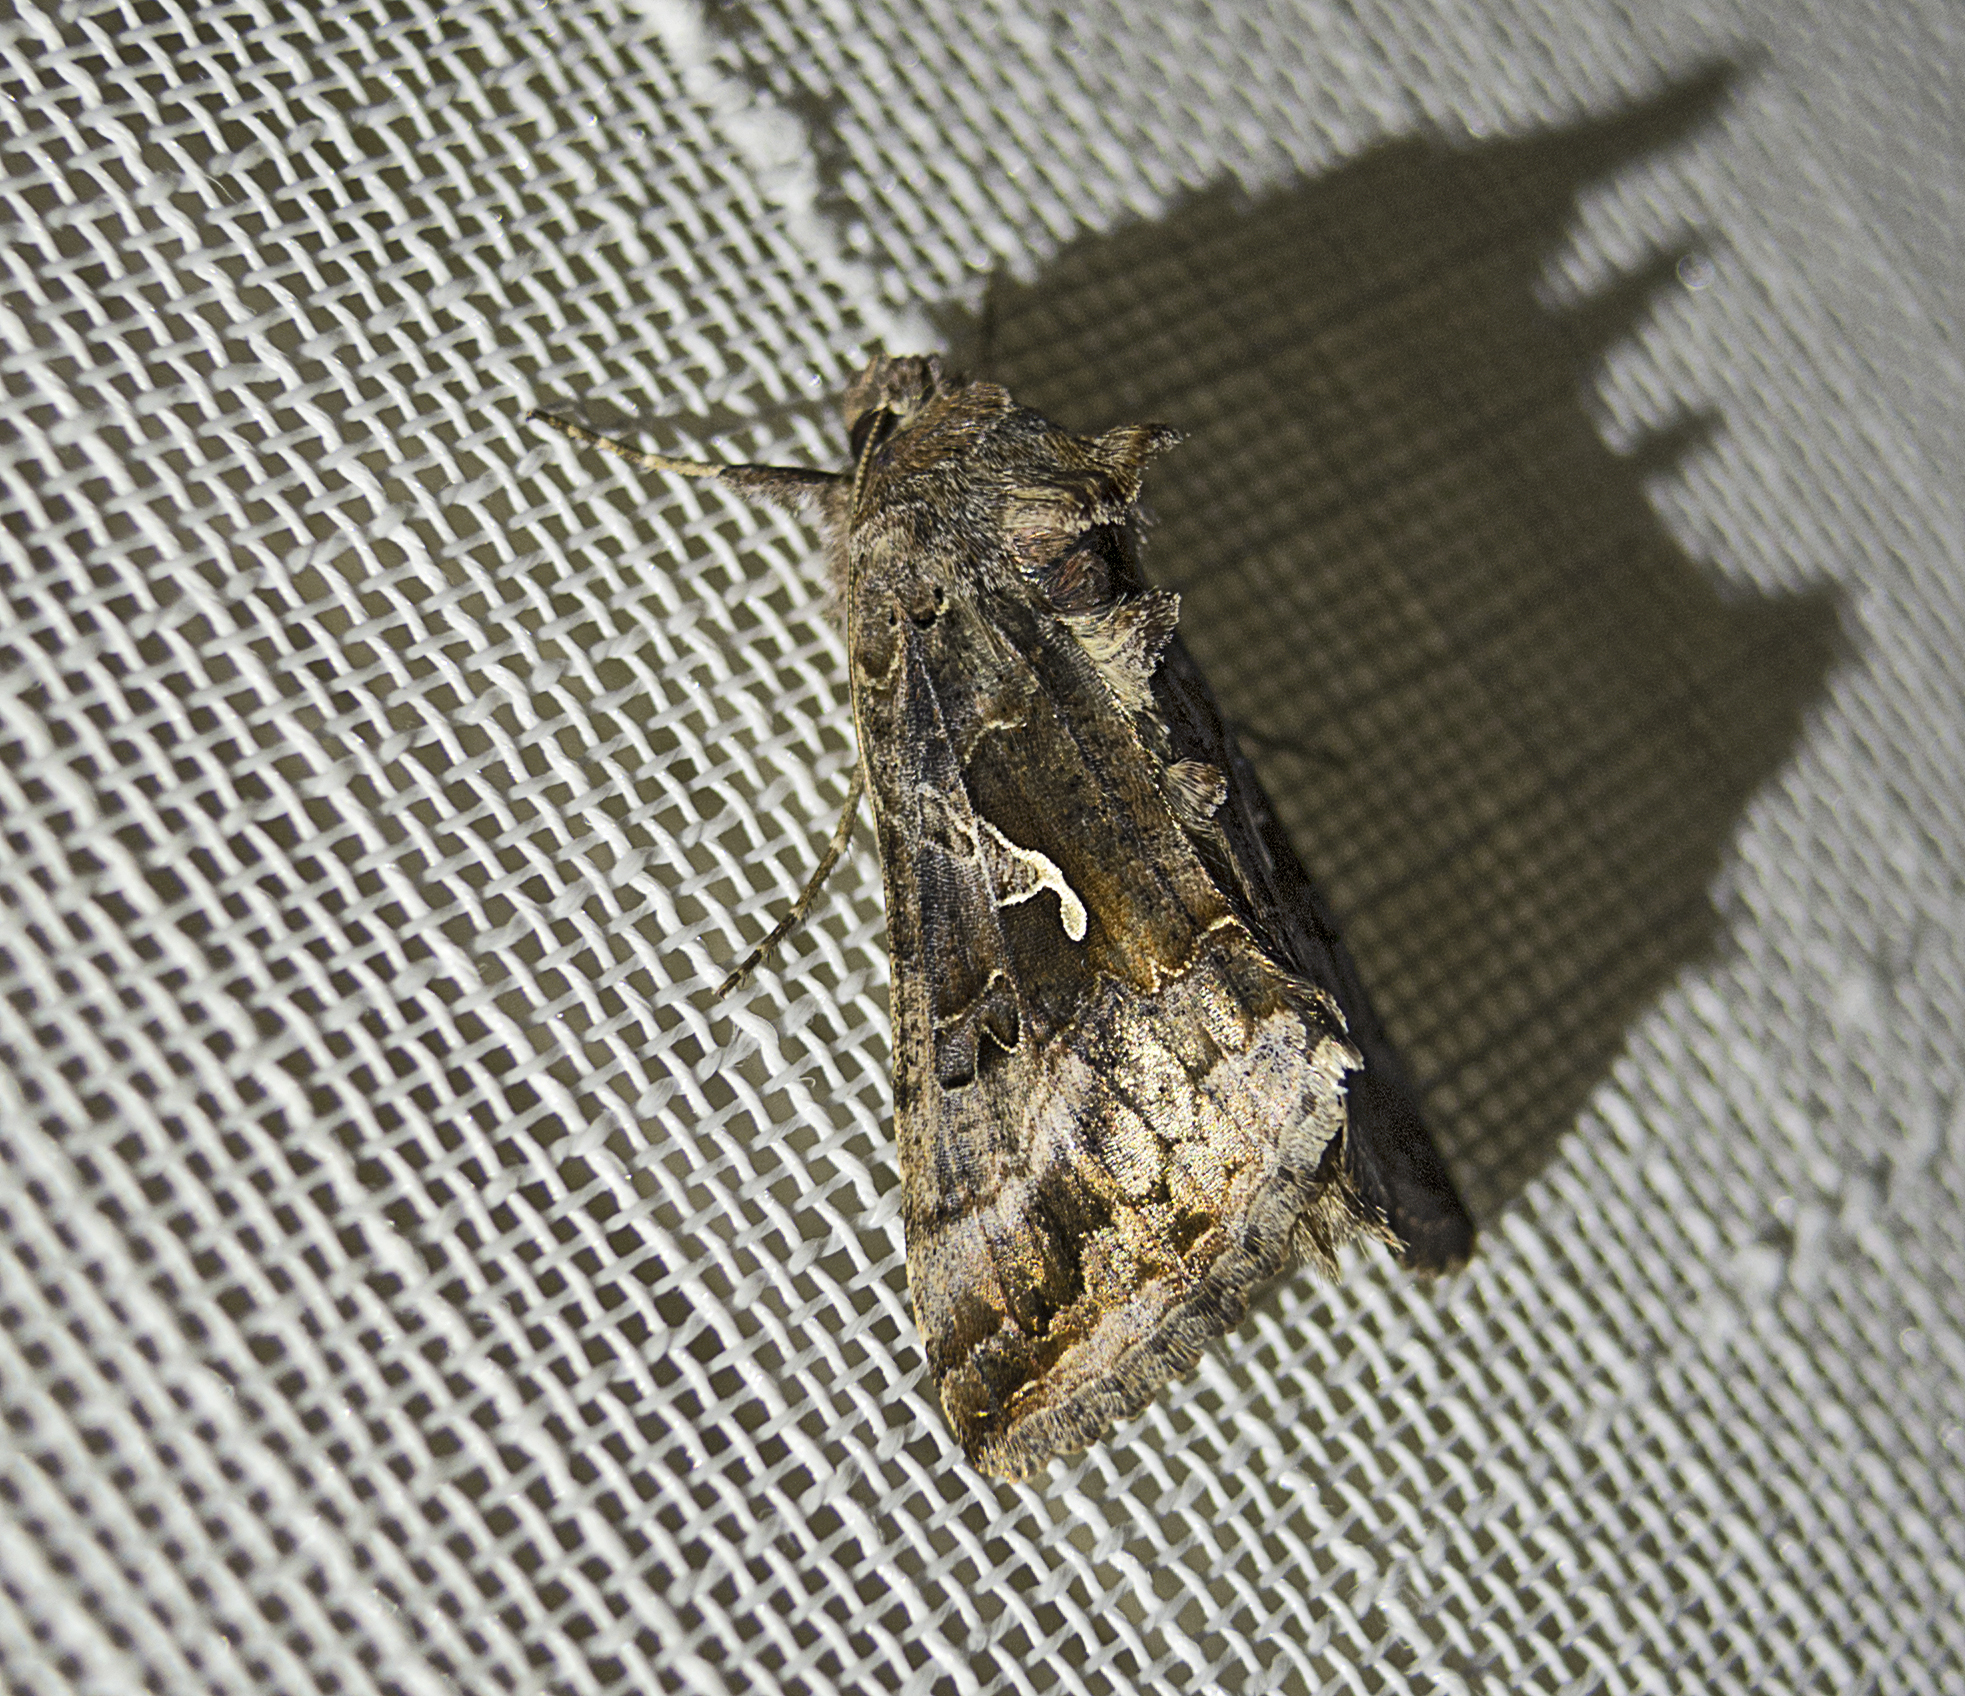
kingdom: Animalia
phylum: Arthropoda
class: Insecta
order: Lepidoptera
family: Noctuidae
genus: Autographa
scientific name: Autographa gamma
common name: Silver y
